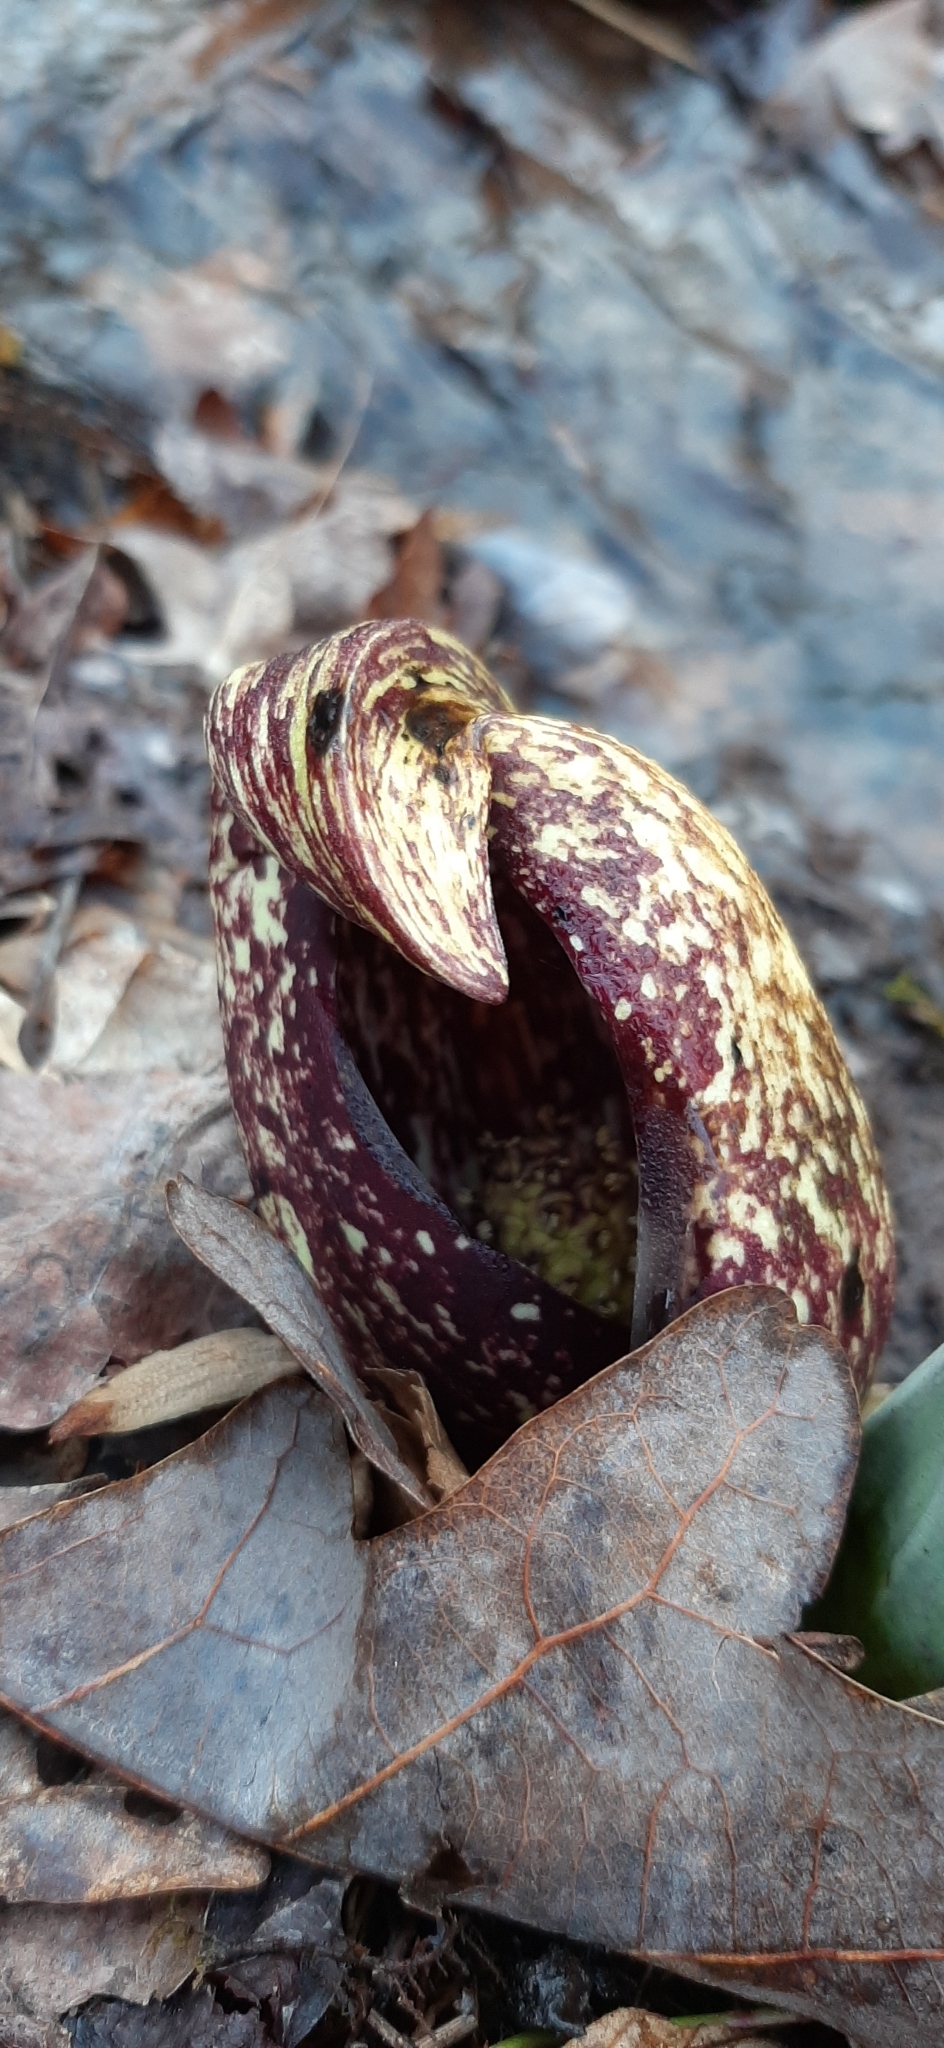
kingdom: Plantae
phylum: Tracheophyta
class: Liliopsida
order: Alismatales
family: Araceae
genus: Symplocarpus
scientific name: Symplocarpus foetidus
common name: Eastern skunk cabbage
